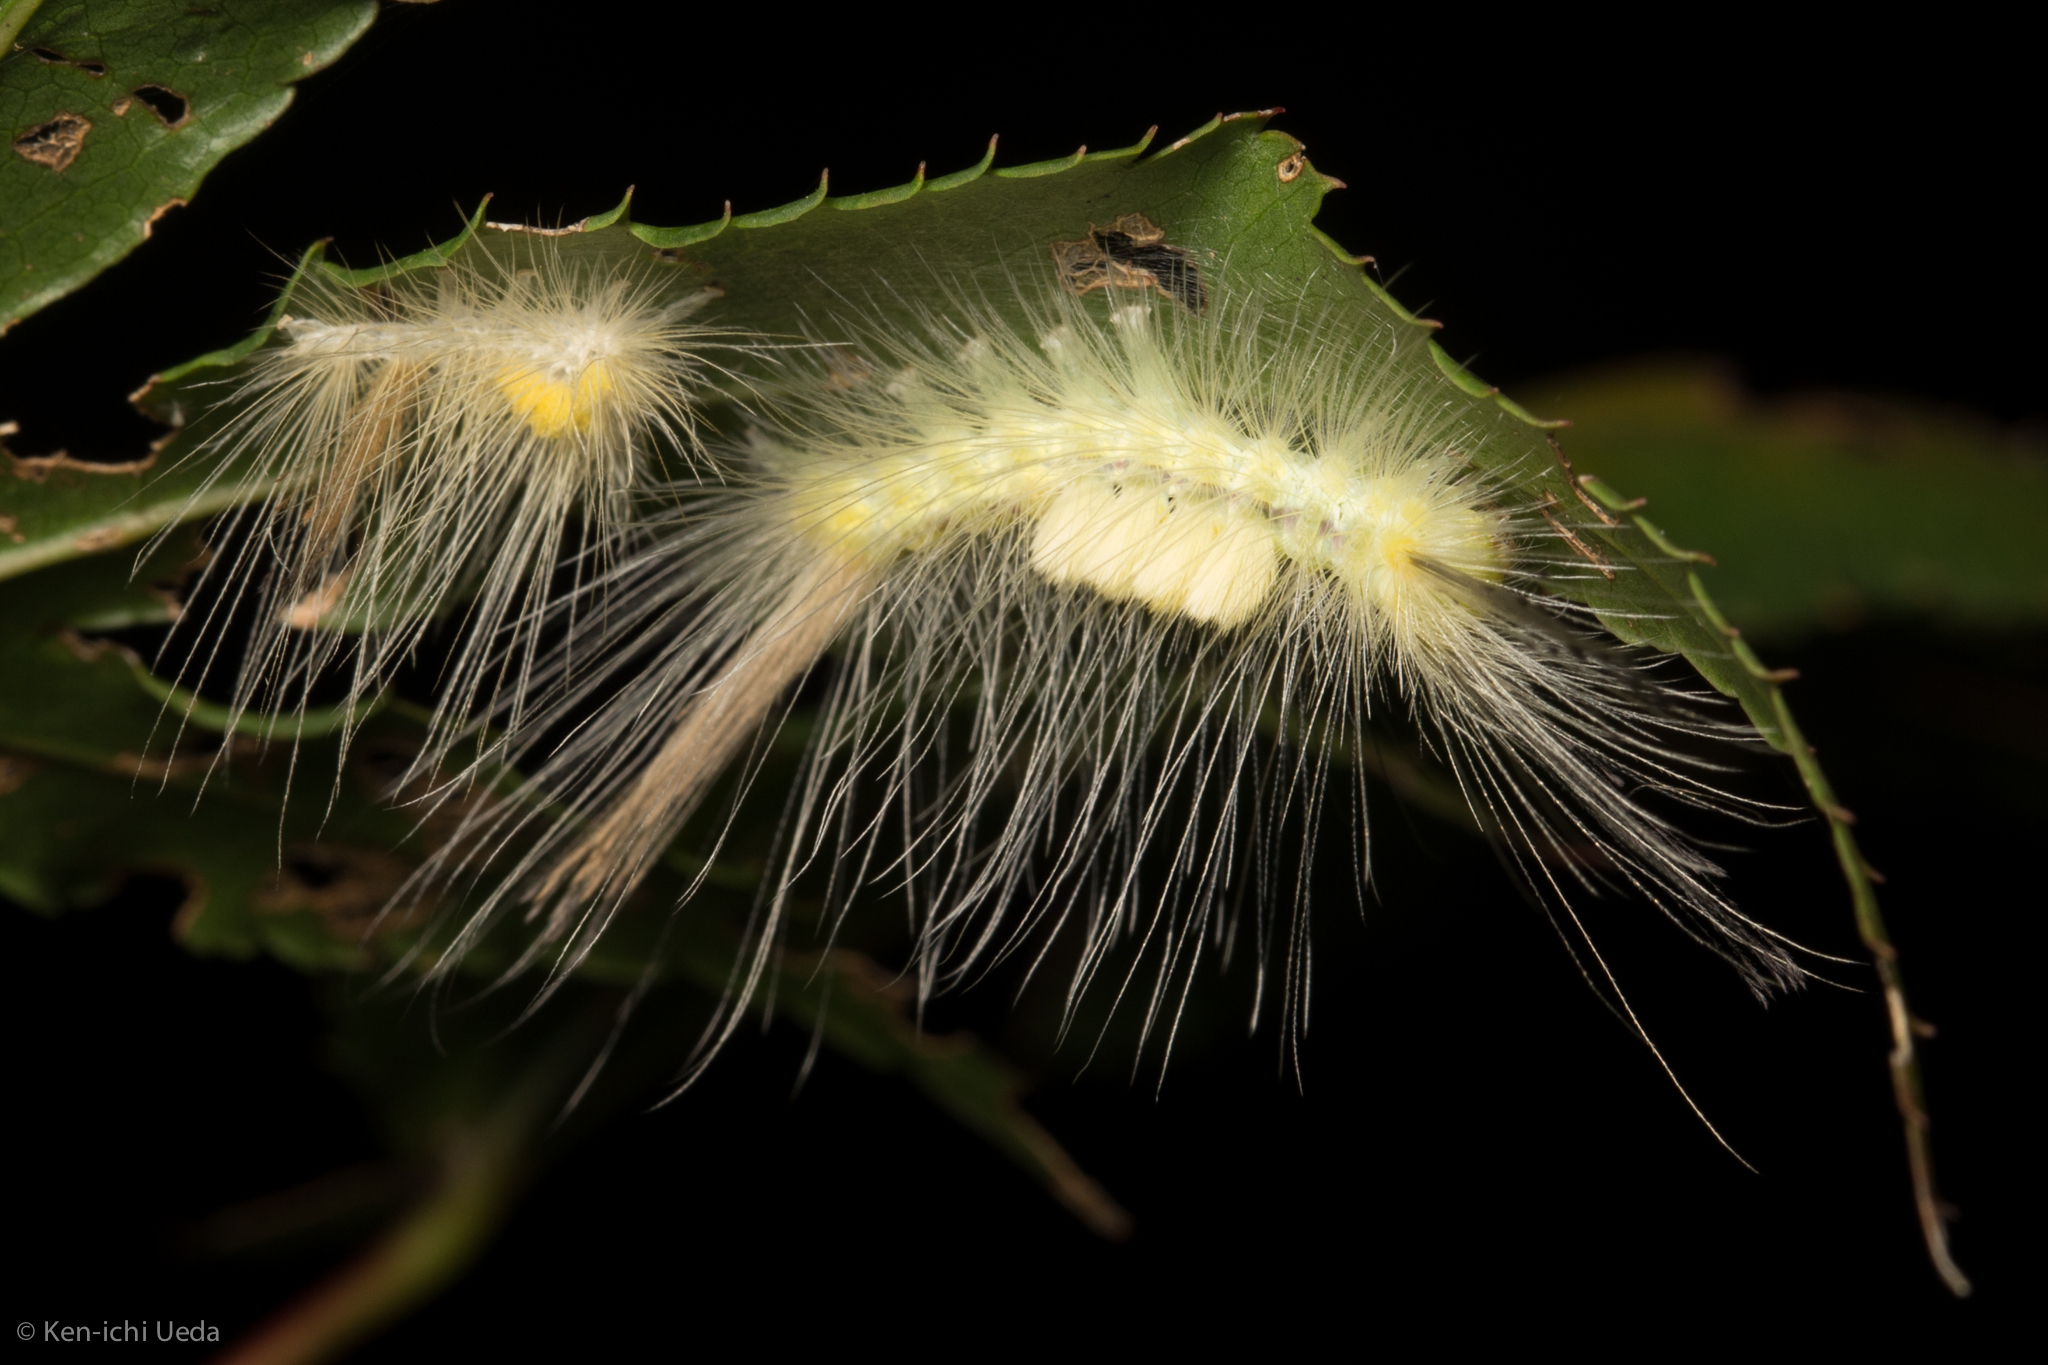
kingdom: Animalia
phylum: Arthropoda
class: Insecta
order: Lepidoptera
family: Erebidae
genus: Orgyia
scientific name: Orgyia definita
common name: Definite tussock moth
